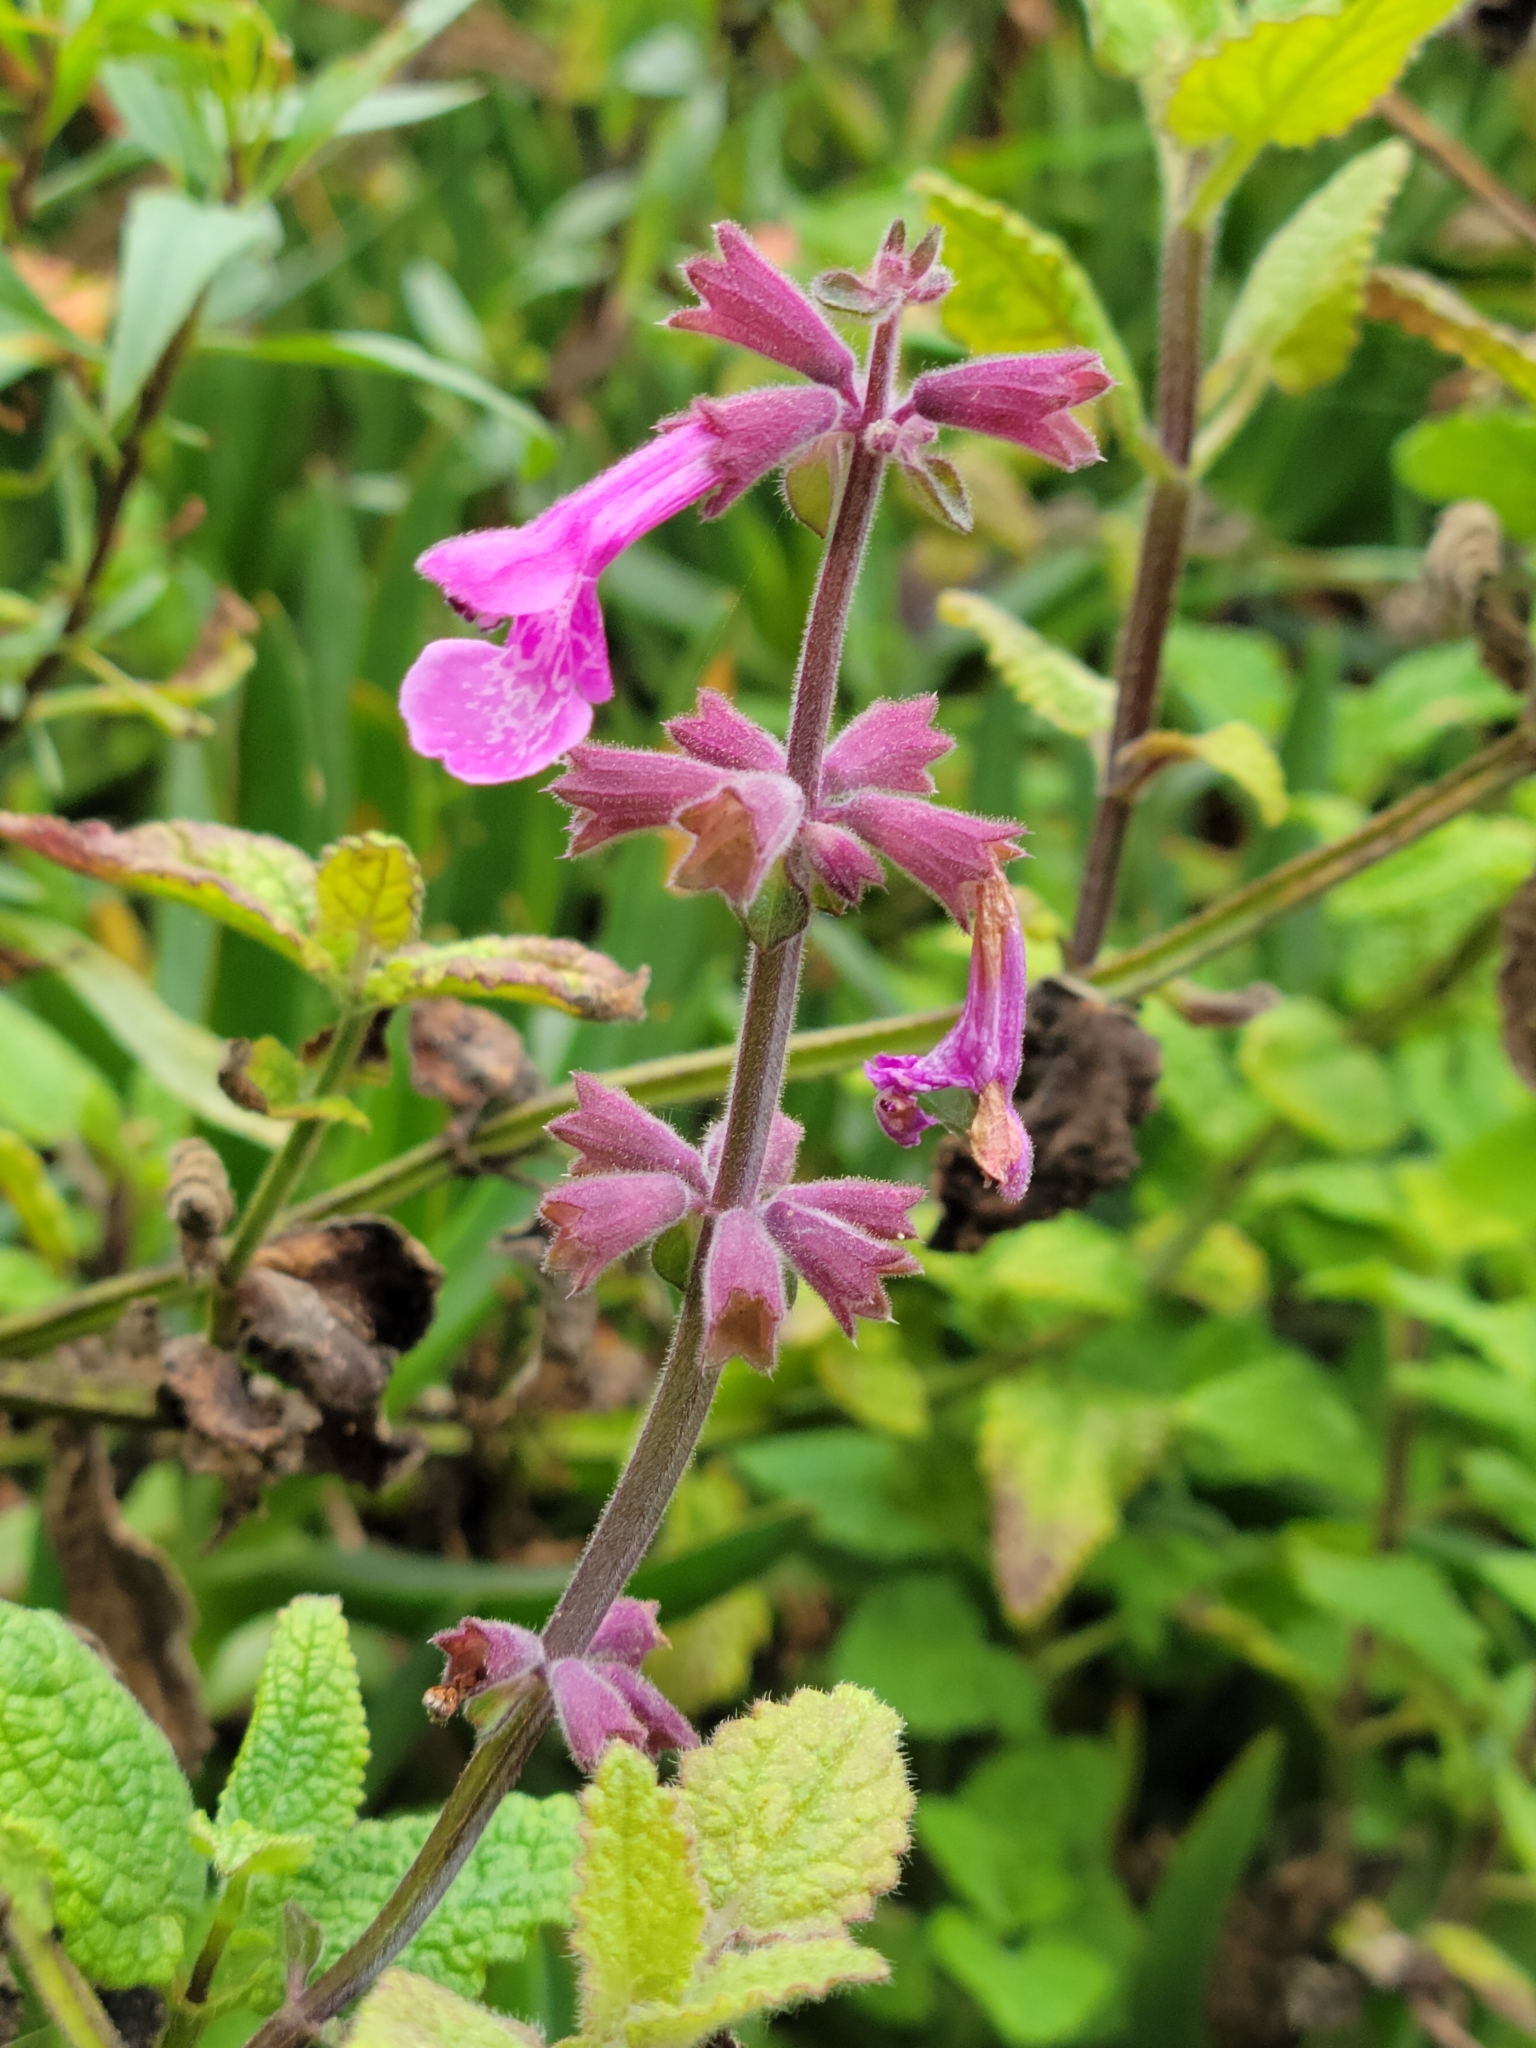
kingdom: Plantae
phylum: Tracheophyta
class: Magnoliopsida
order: Lamiales
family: Lamiaceae
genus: Stachys
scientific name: Stachys chamissonis
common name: Coastal hedge-nettle
